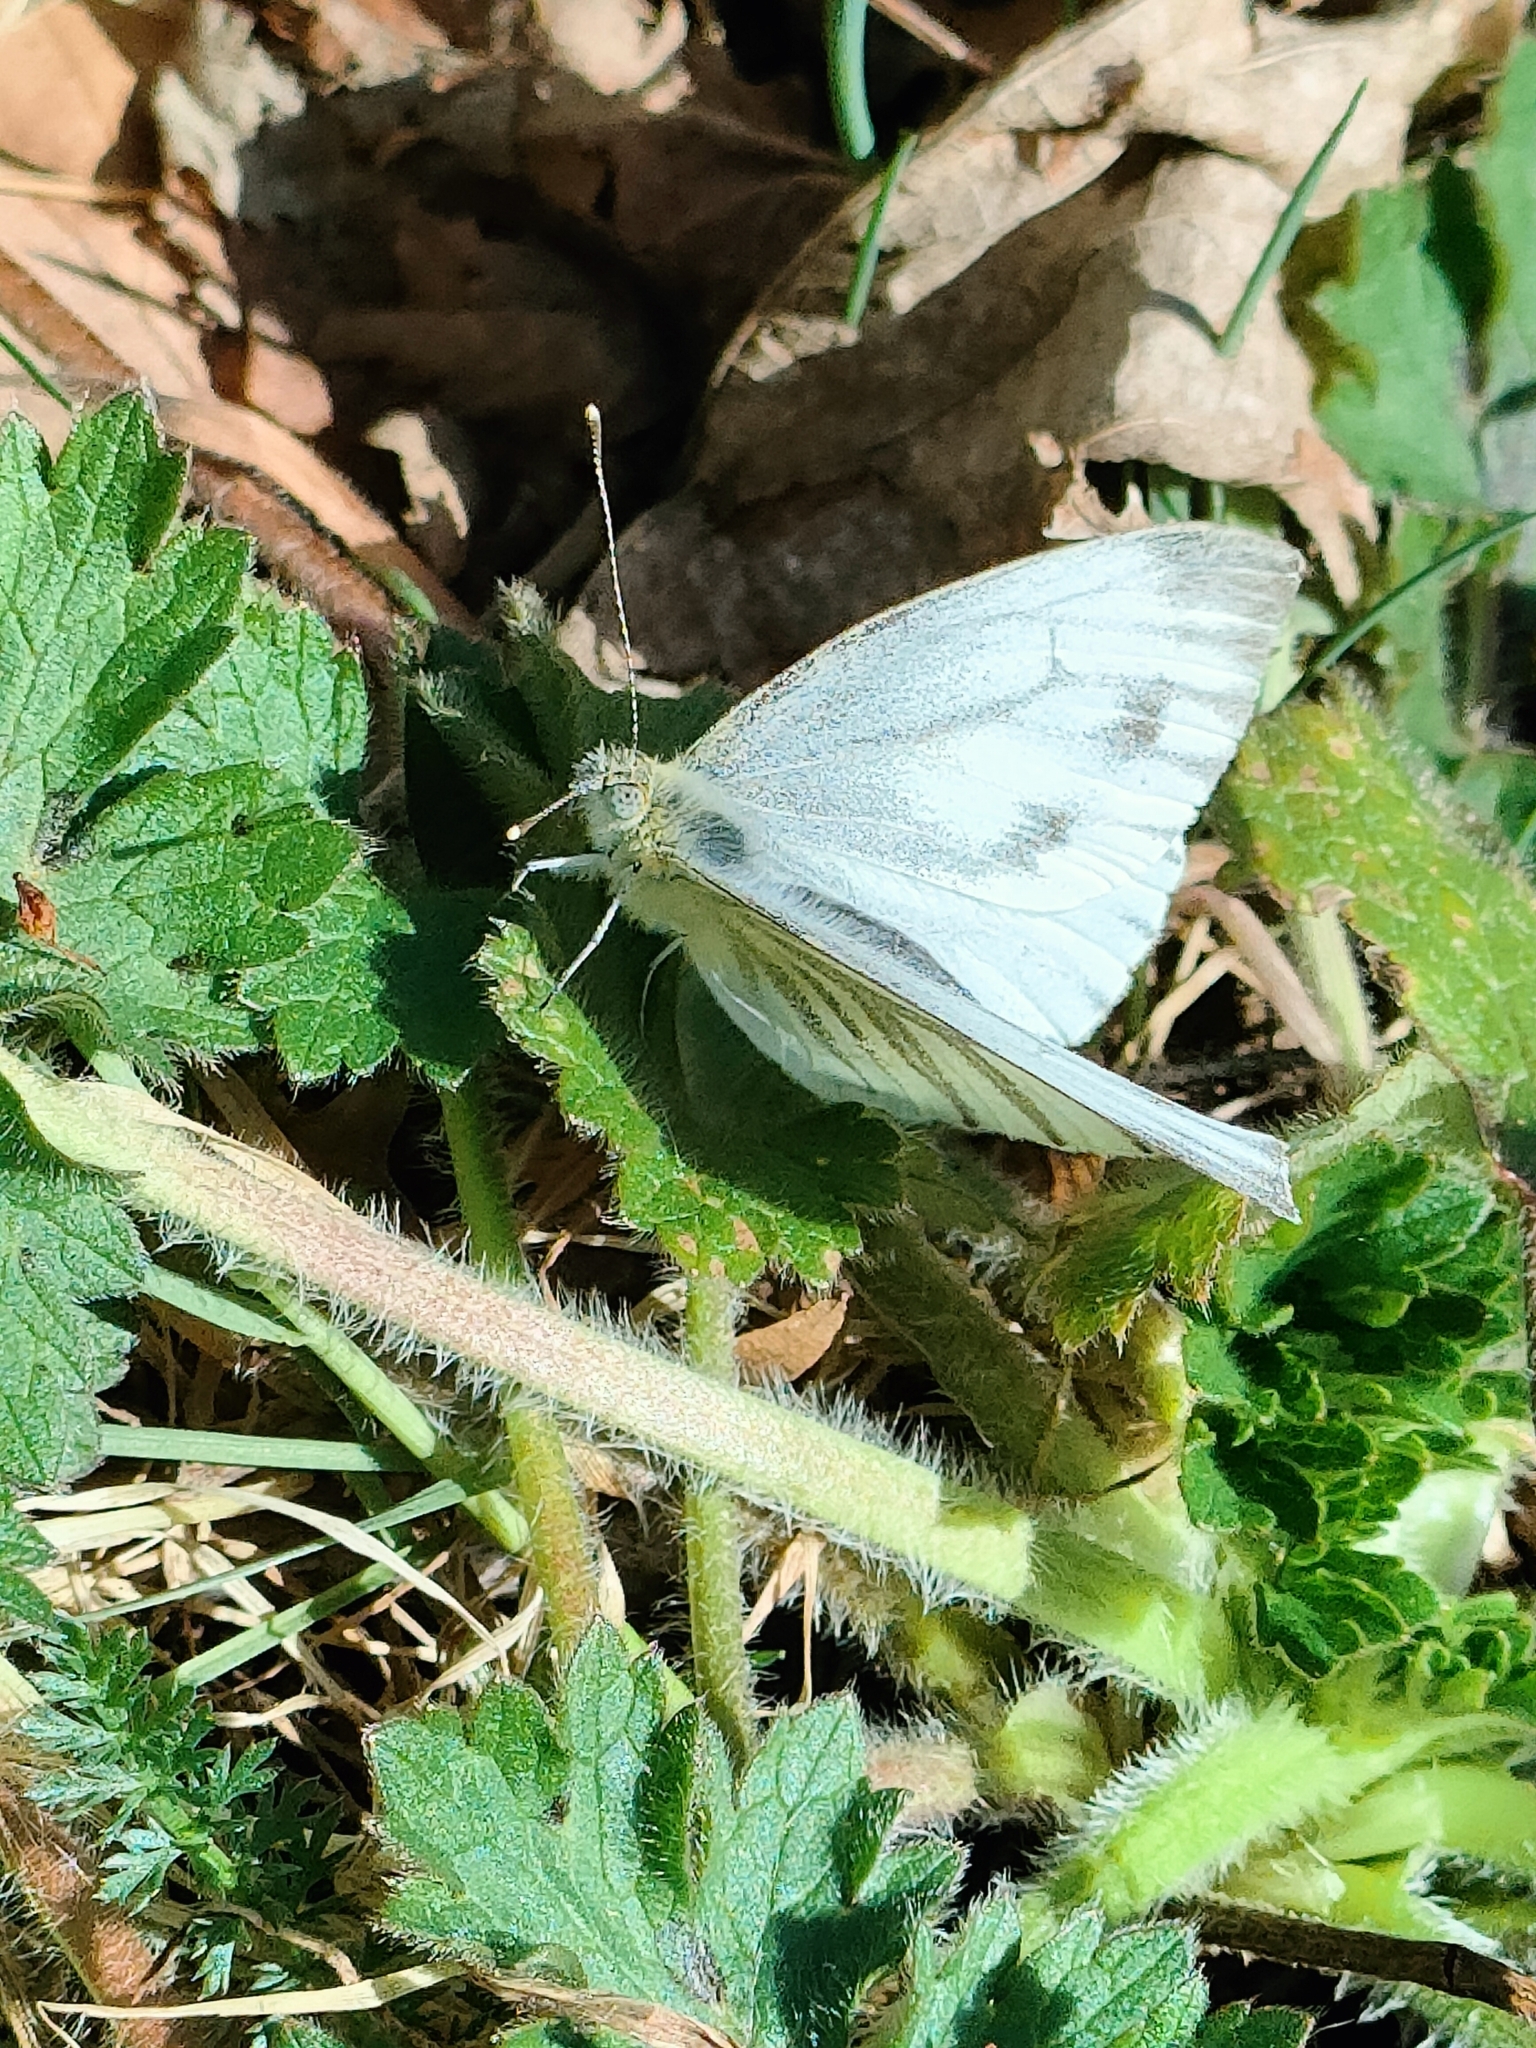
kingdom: Animalia
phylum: Arthropoda
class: Insecta
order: Lepidoptera
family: Pieridae
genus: Pieris
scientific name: Pieris napi
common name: Green-veined white
